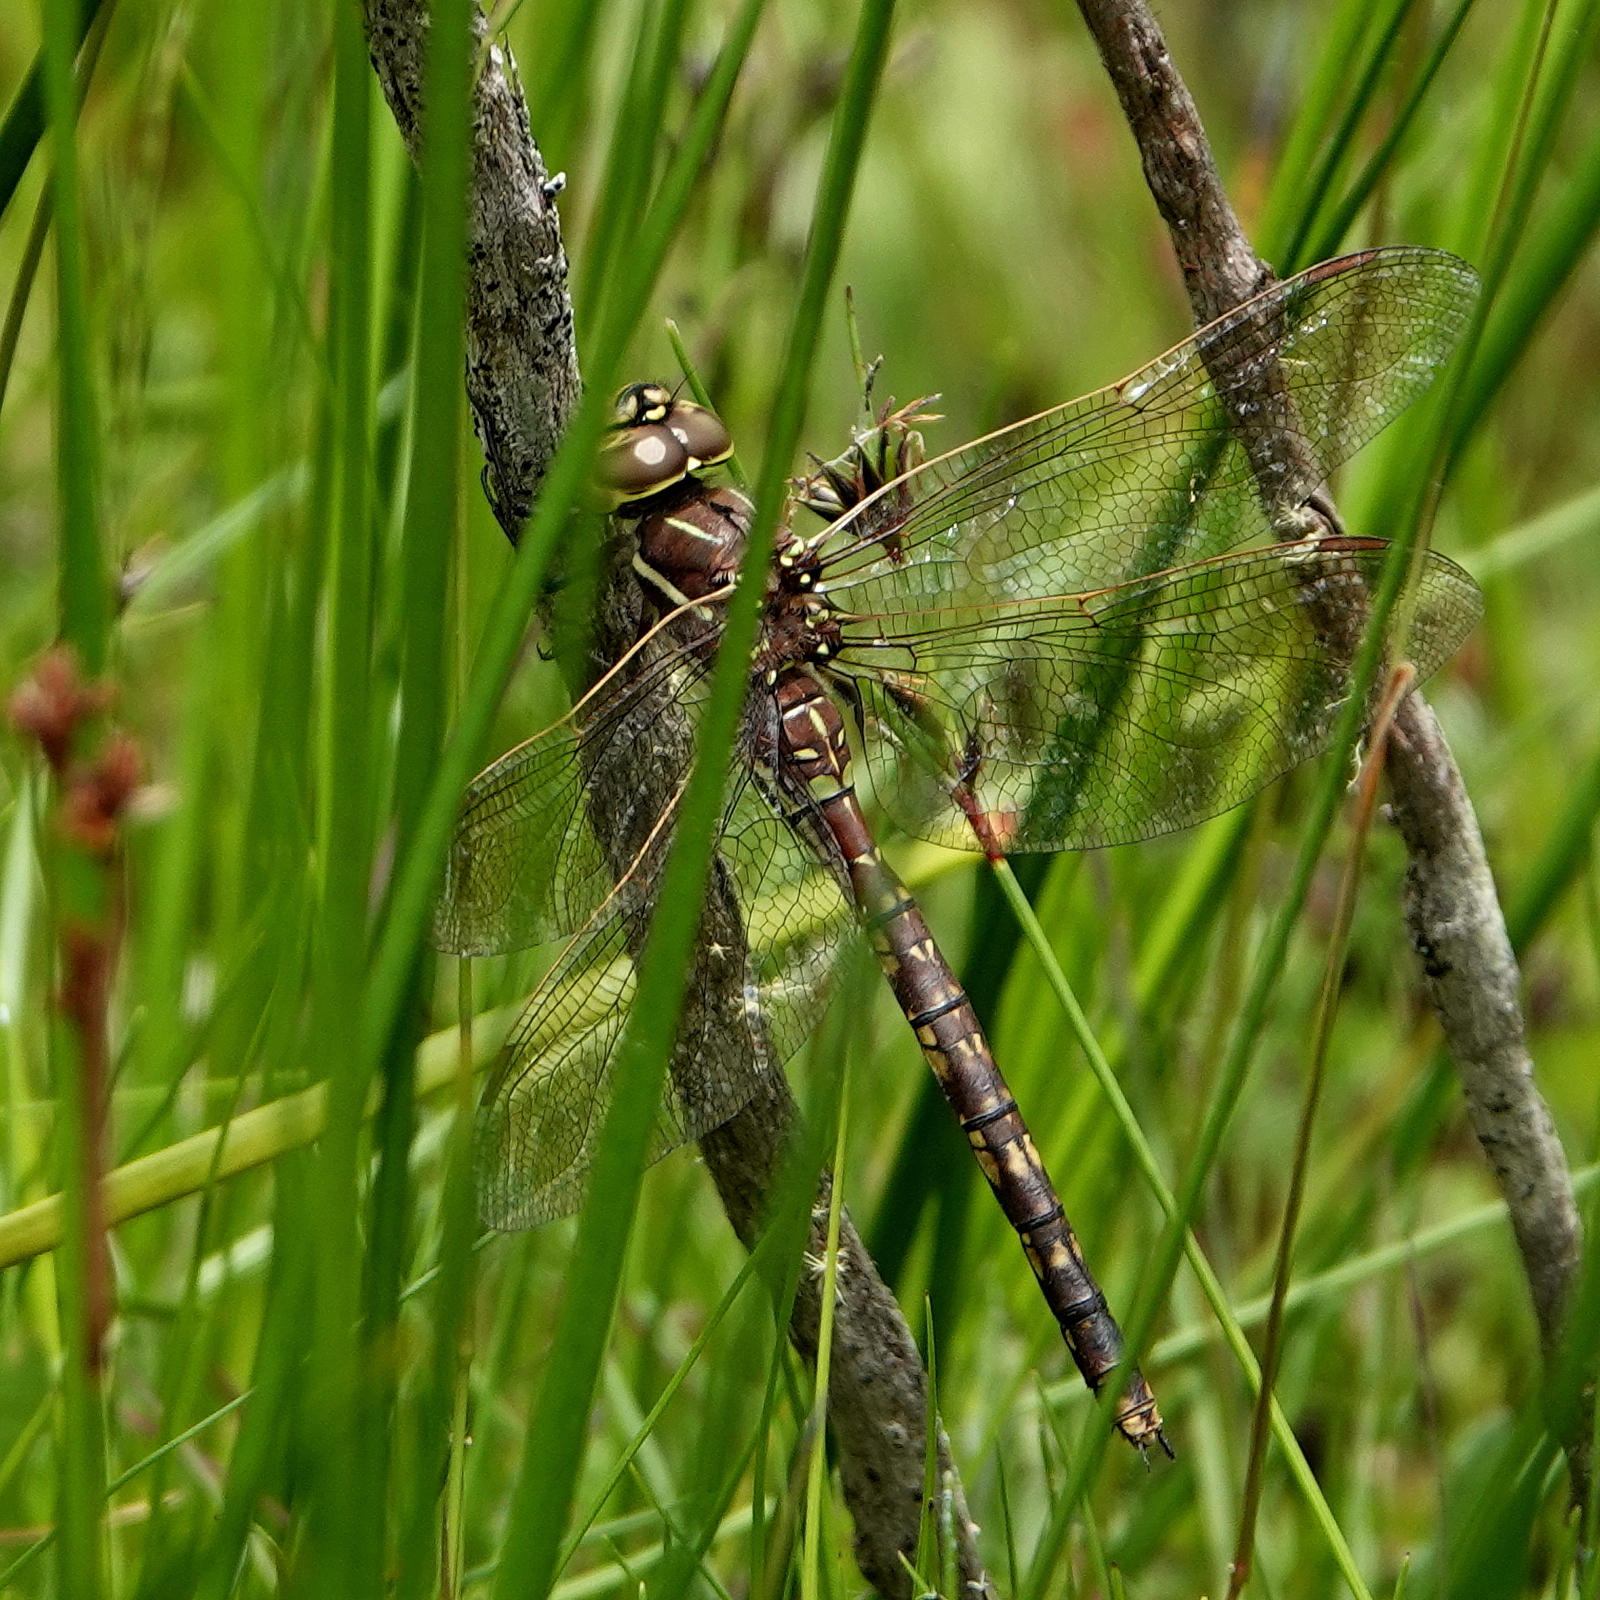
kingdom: Animalia
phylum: Arthropoda
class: Insecta
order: Odonata
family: Aeshnidae
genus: Aeshna
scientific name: Aeshna brevistyla
